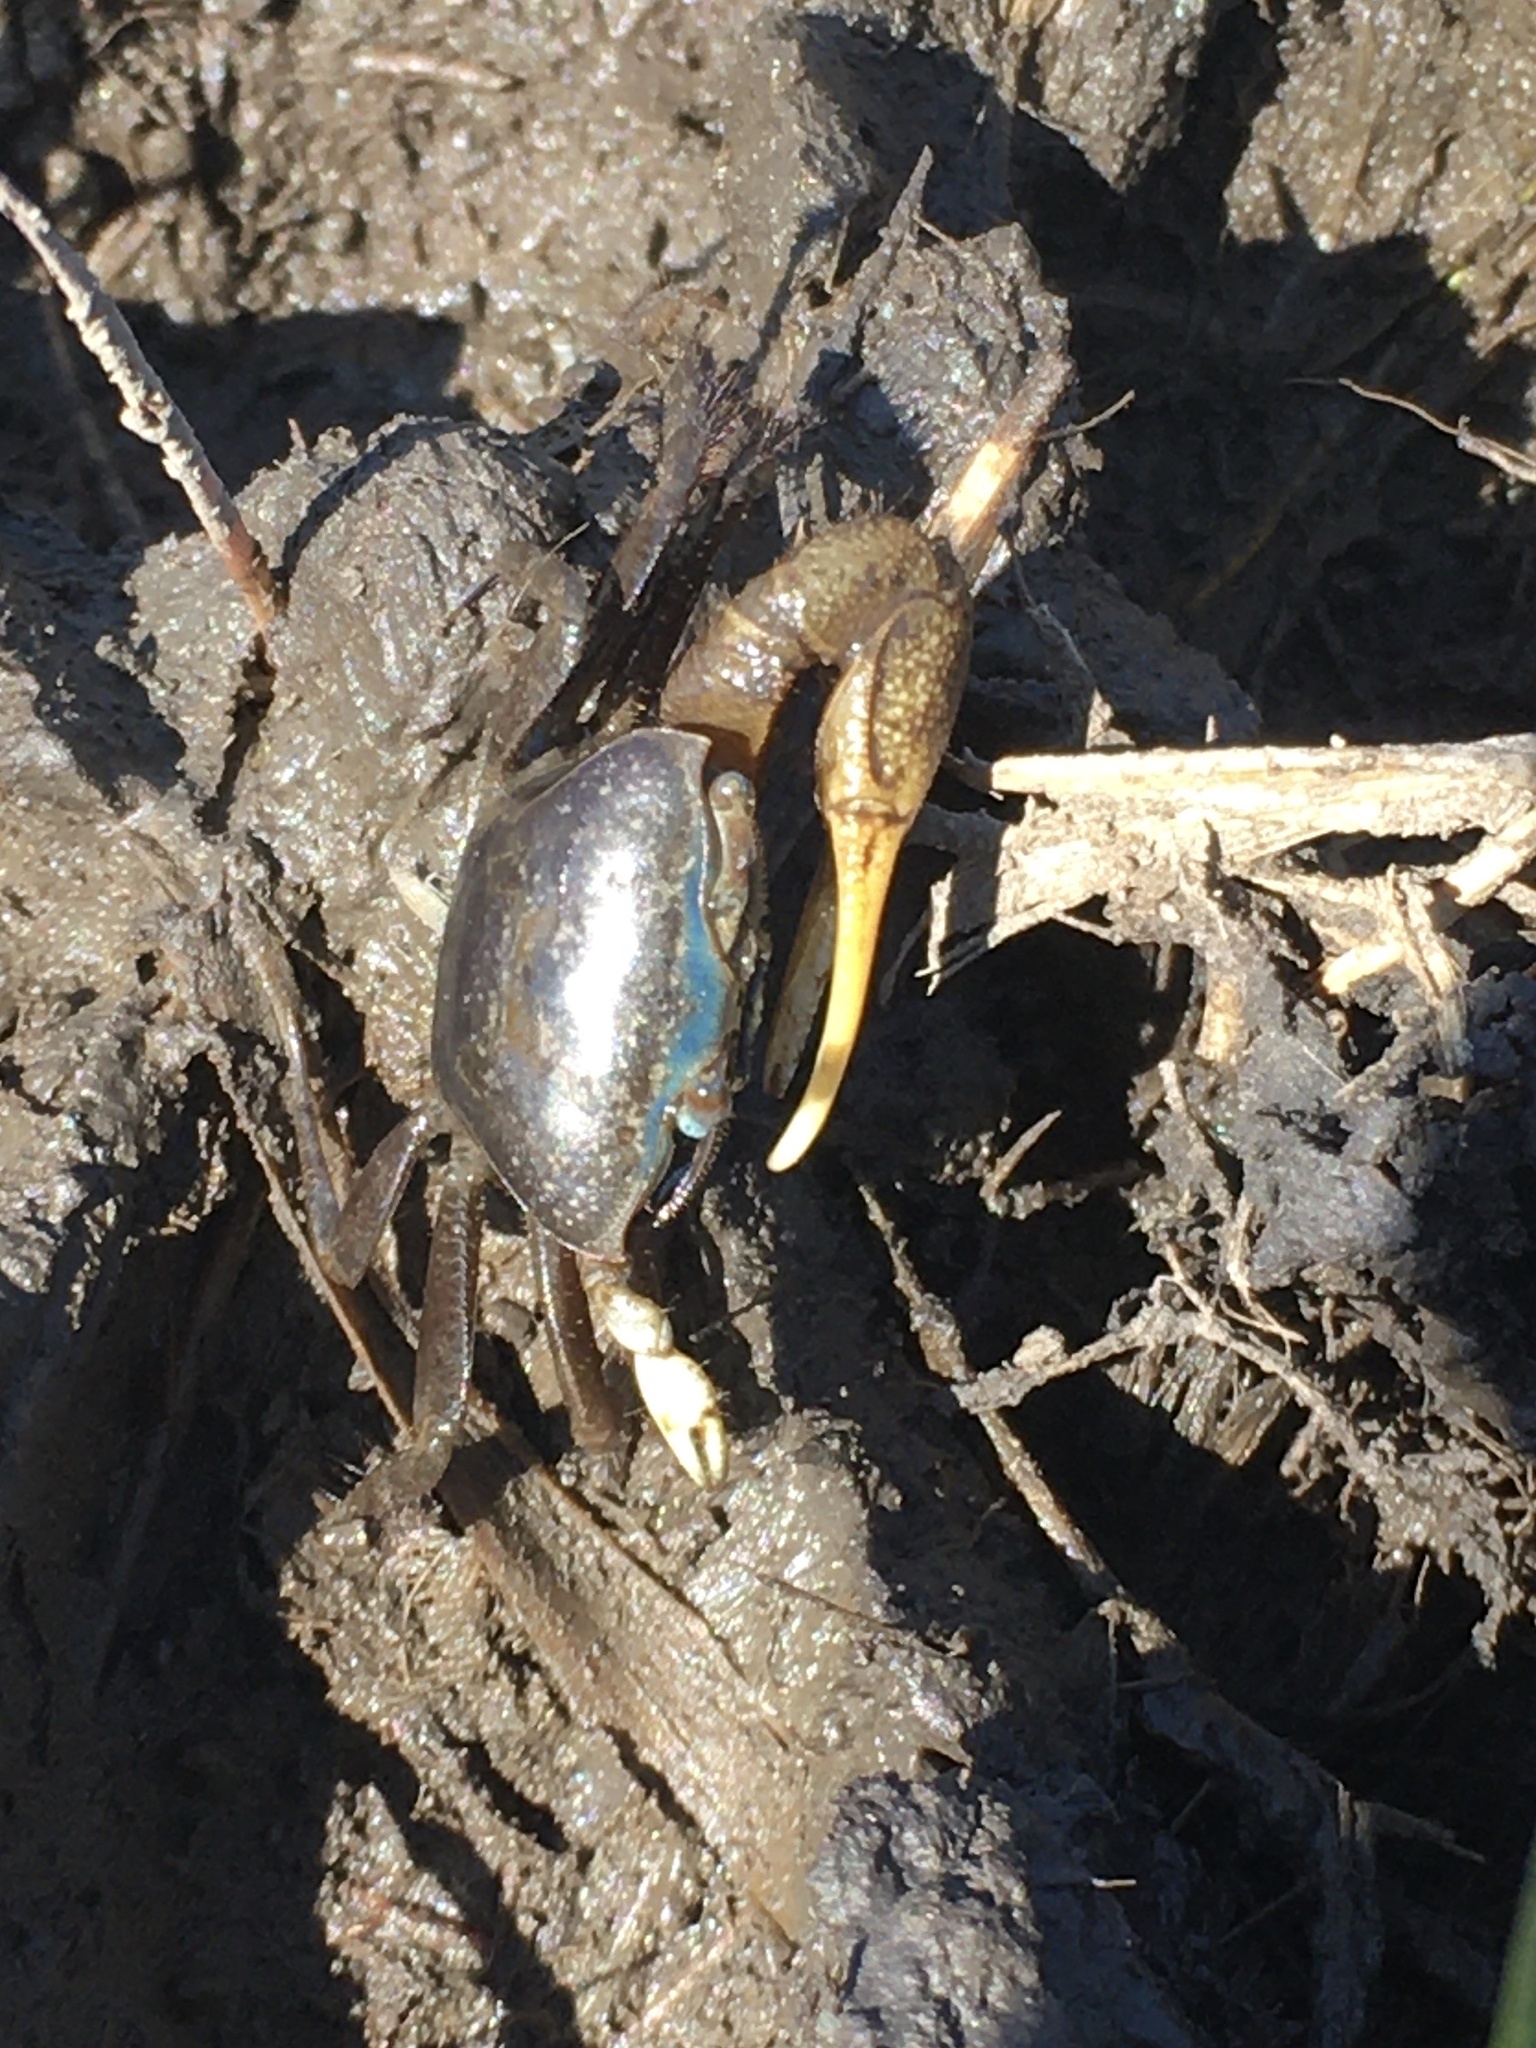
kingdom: Animalia
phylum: Arthropoda
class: Malacostraca
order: Decapoda
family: Ocypodidae
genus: Minuca
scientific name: Minuca pugnax
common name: Mud fiddler crab
